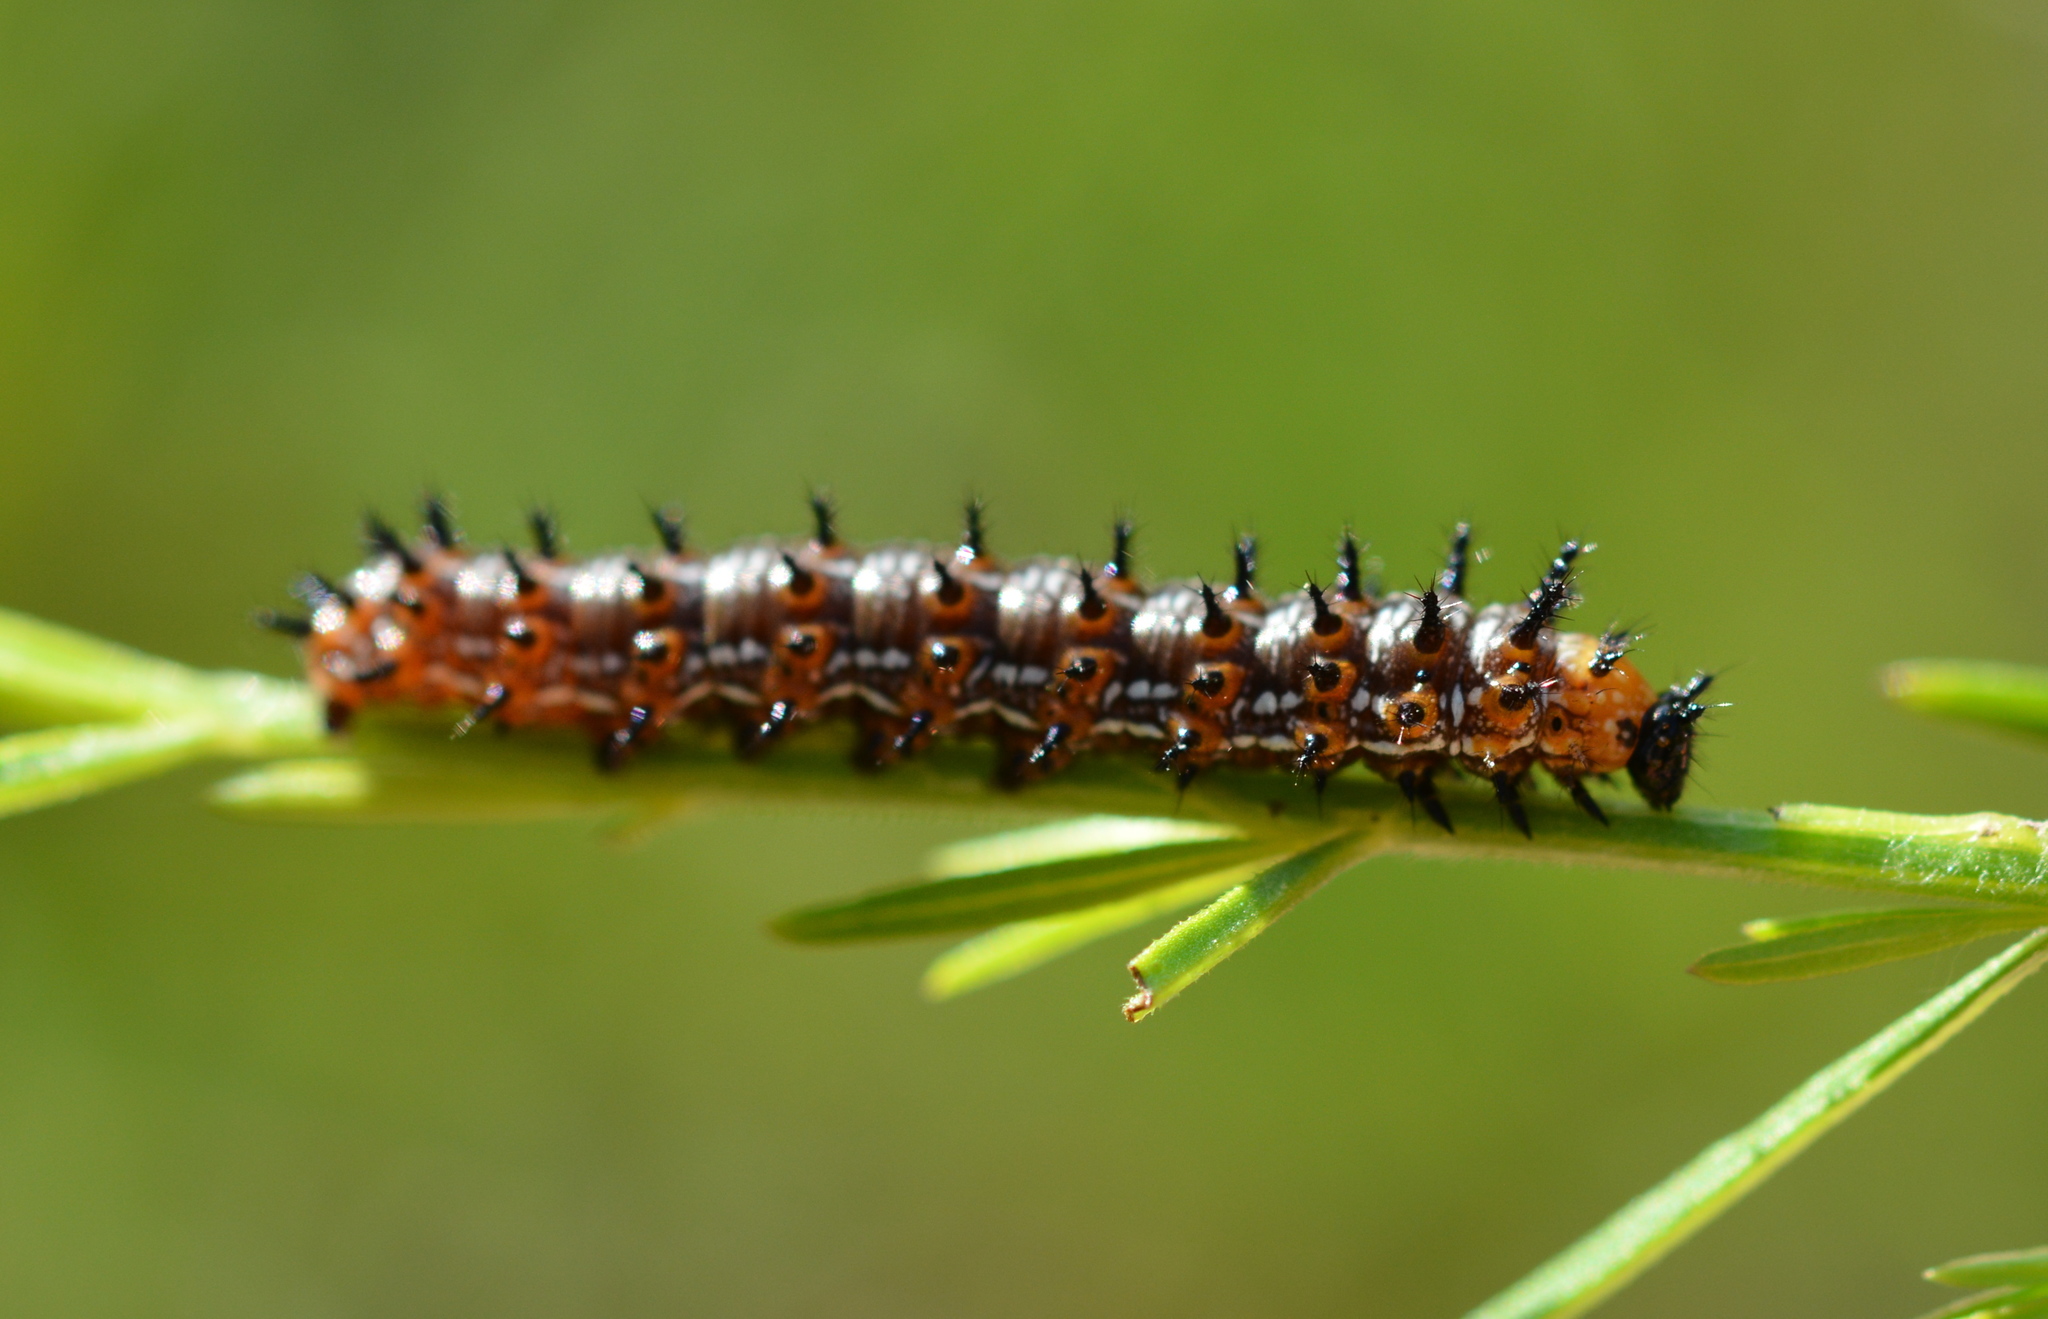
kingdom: Animalia
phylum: Arthropoda
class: Insecta
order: Lepidoptera
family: Nymphalidae
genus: Junonia
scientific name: Junonia coenia
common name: Common buckeye
